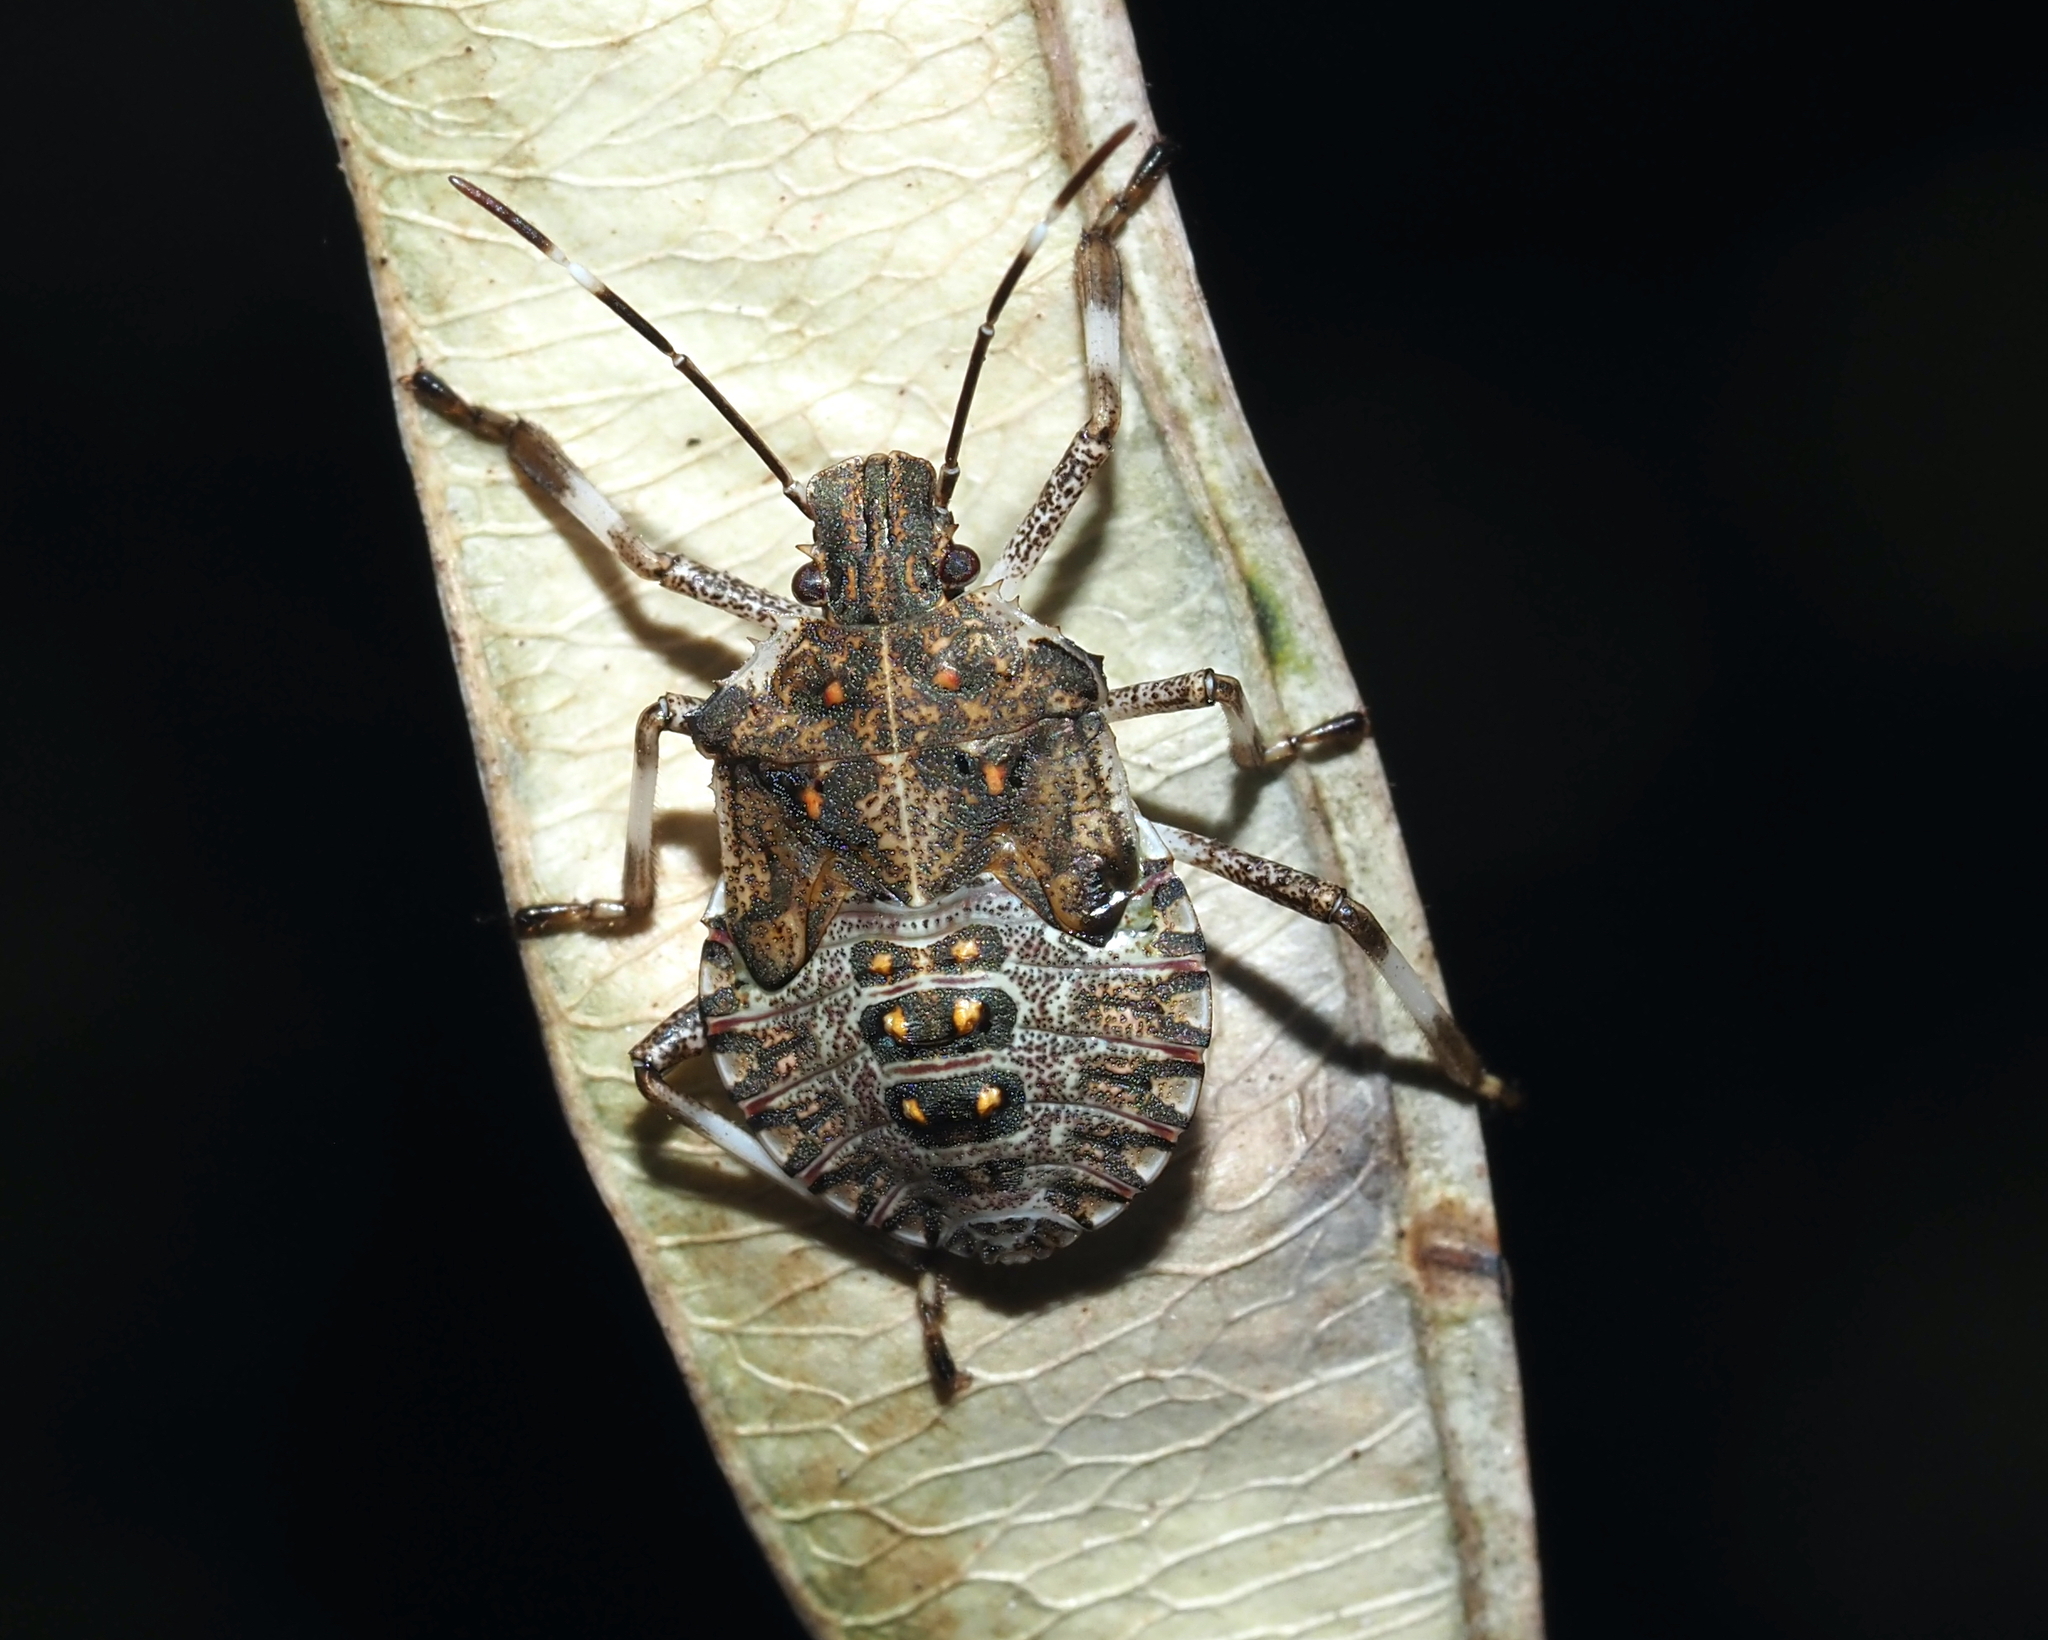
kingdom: Animalia
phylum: Arthropoda
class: Insecta
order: Hemiptera
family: Pentatomidae
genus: Halyomorpha
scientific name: Halyomorpha halys
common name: Brown marmorated stink bug
